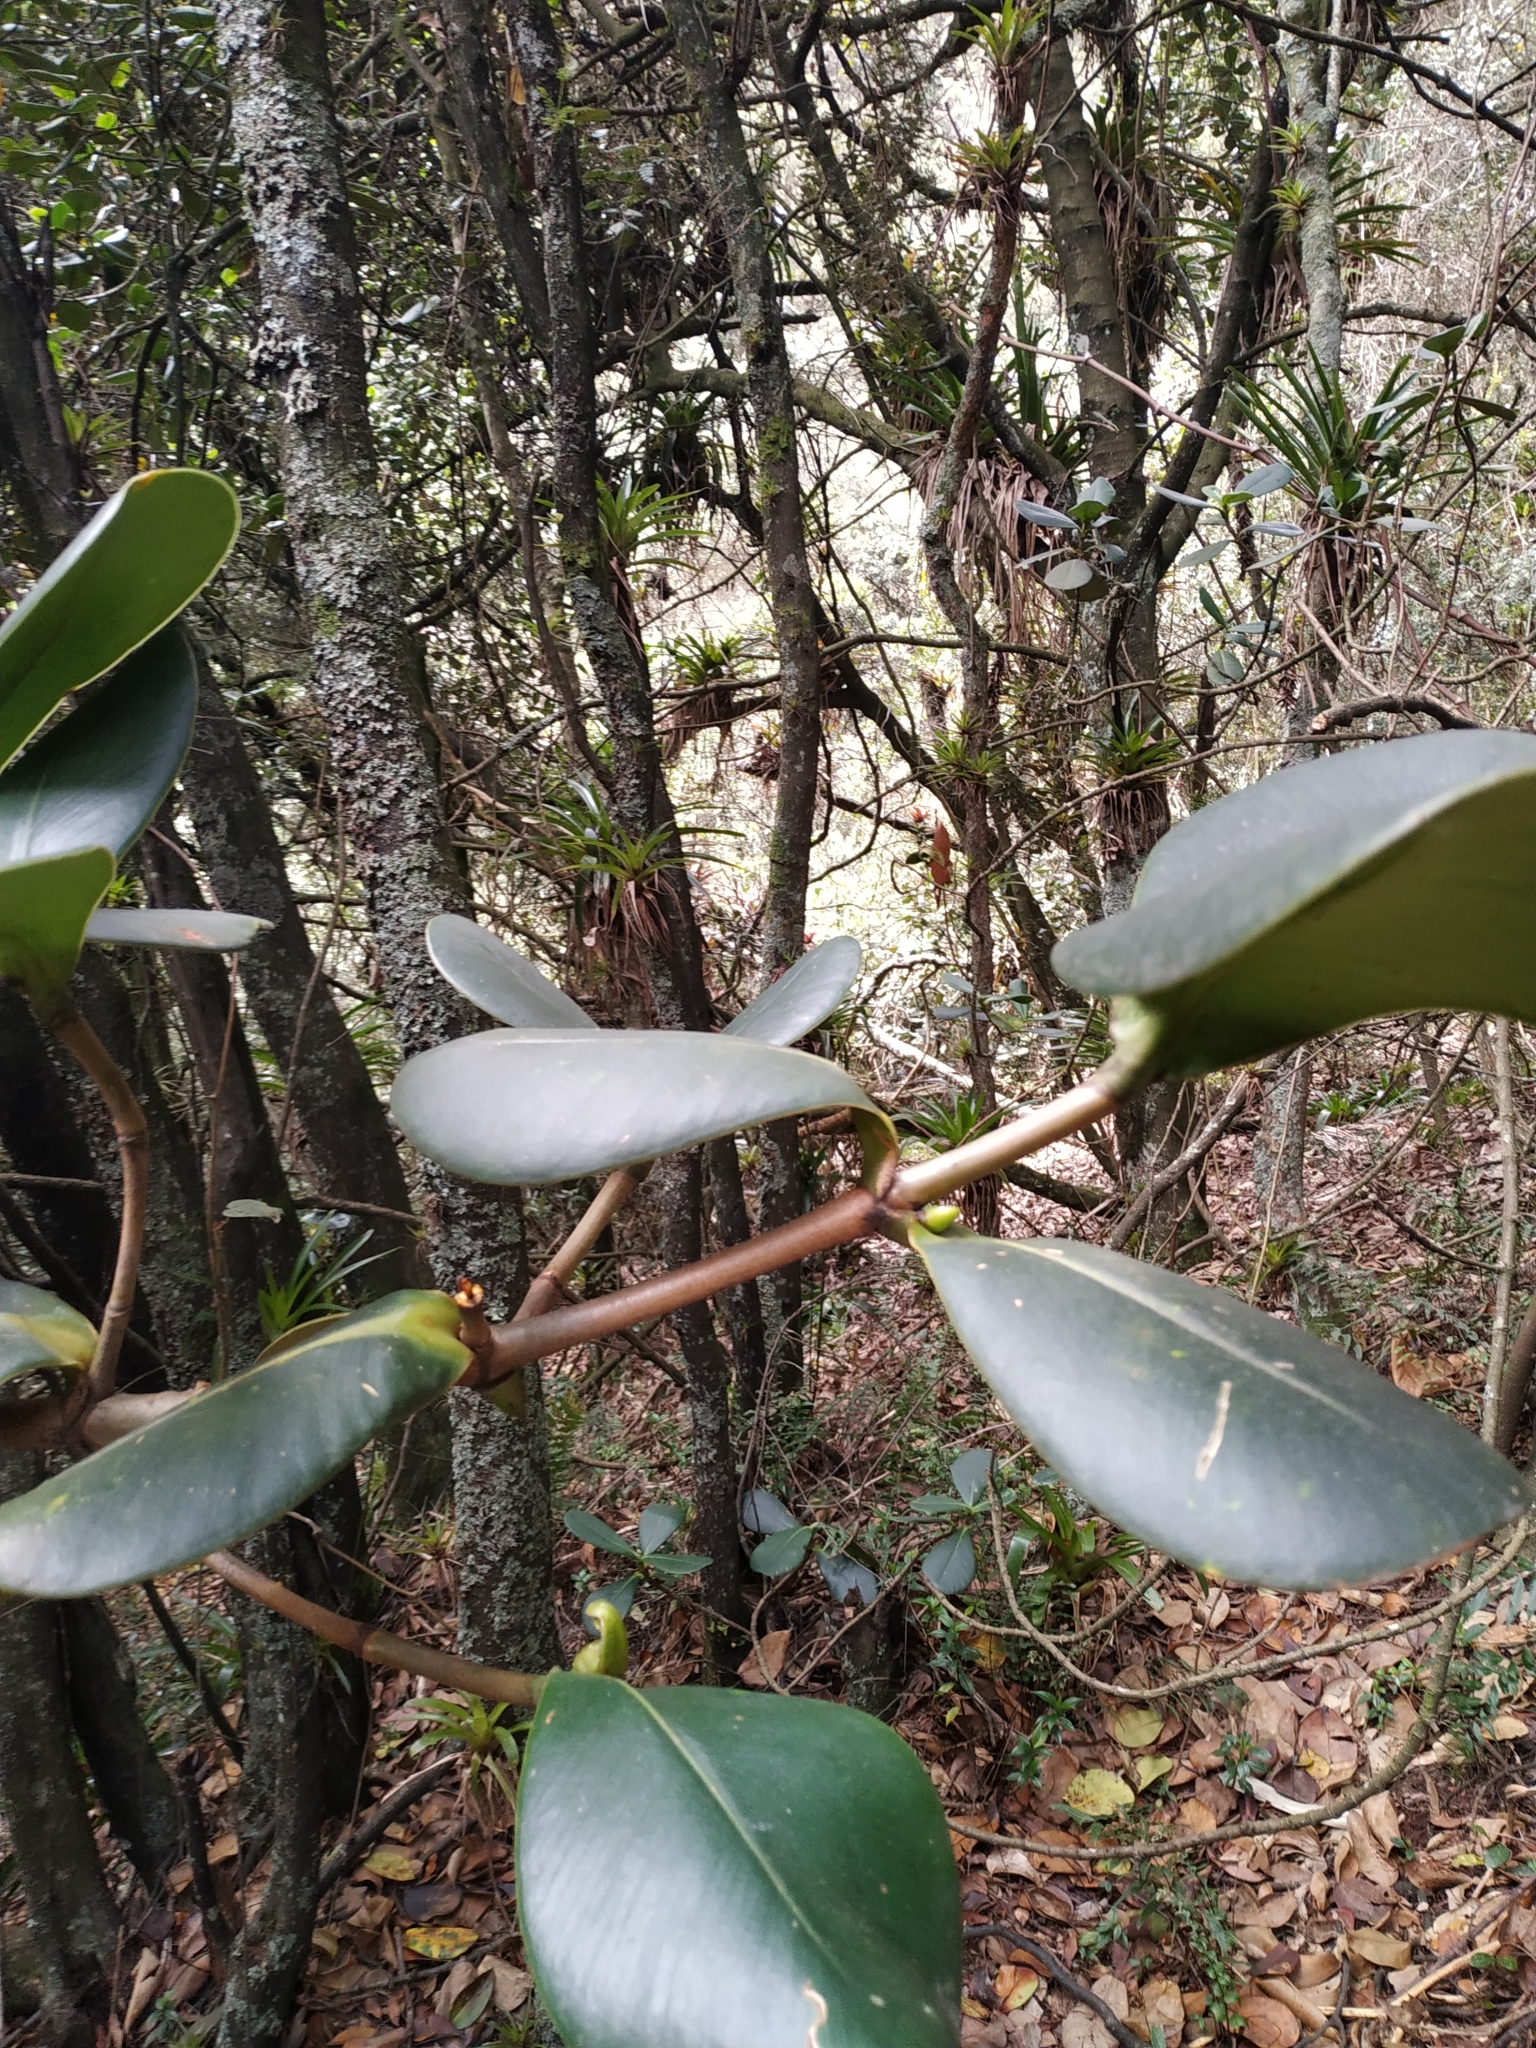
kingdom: Plantae
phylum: Tracheophyta
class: Magnoliopsida
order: Malpighiales
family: Clusiaceae
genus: Clusia
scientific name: Clusia multiflora
